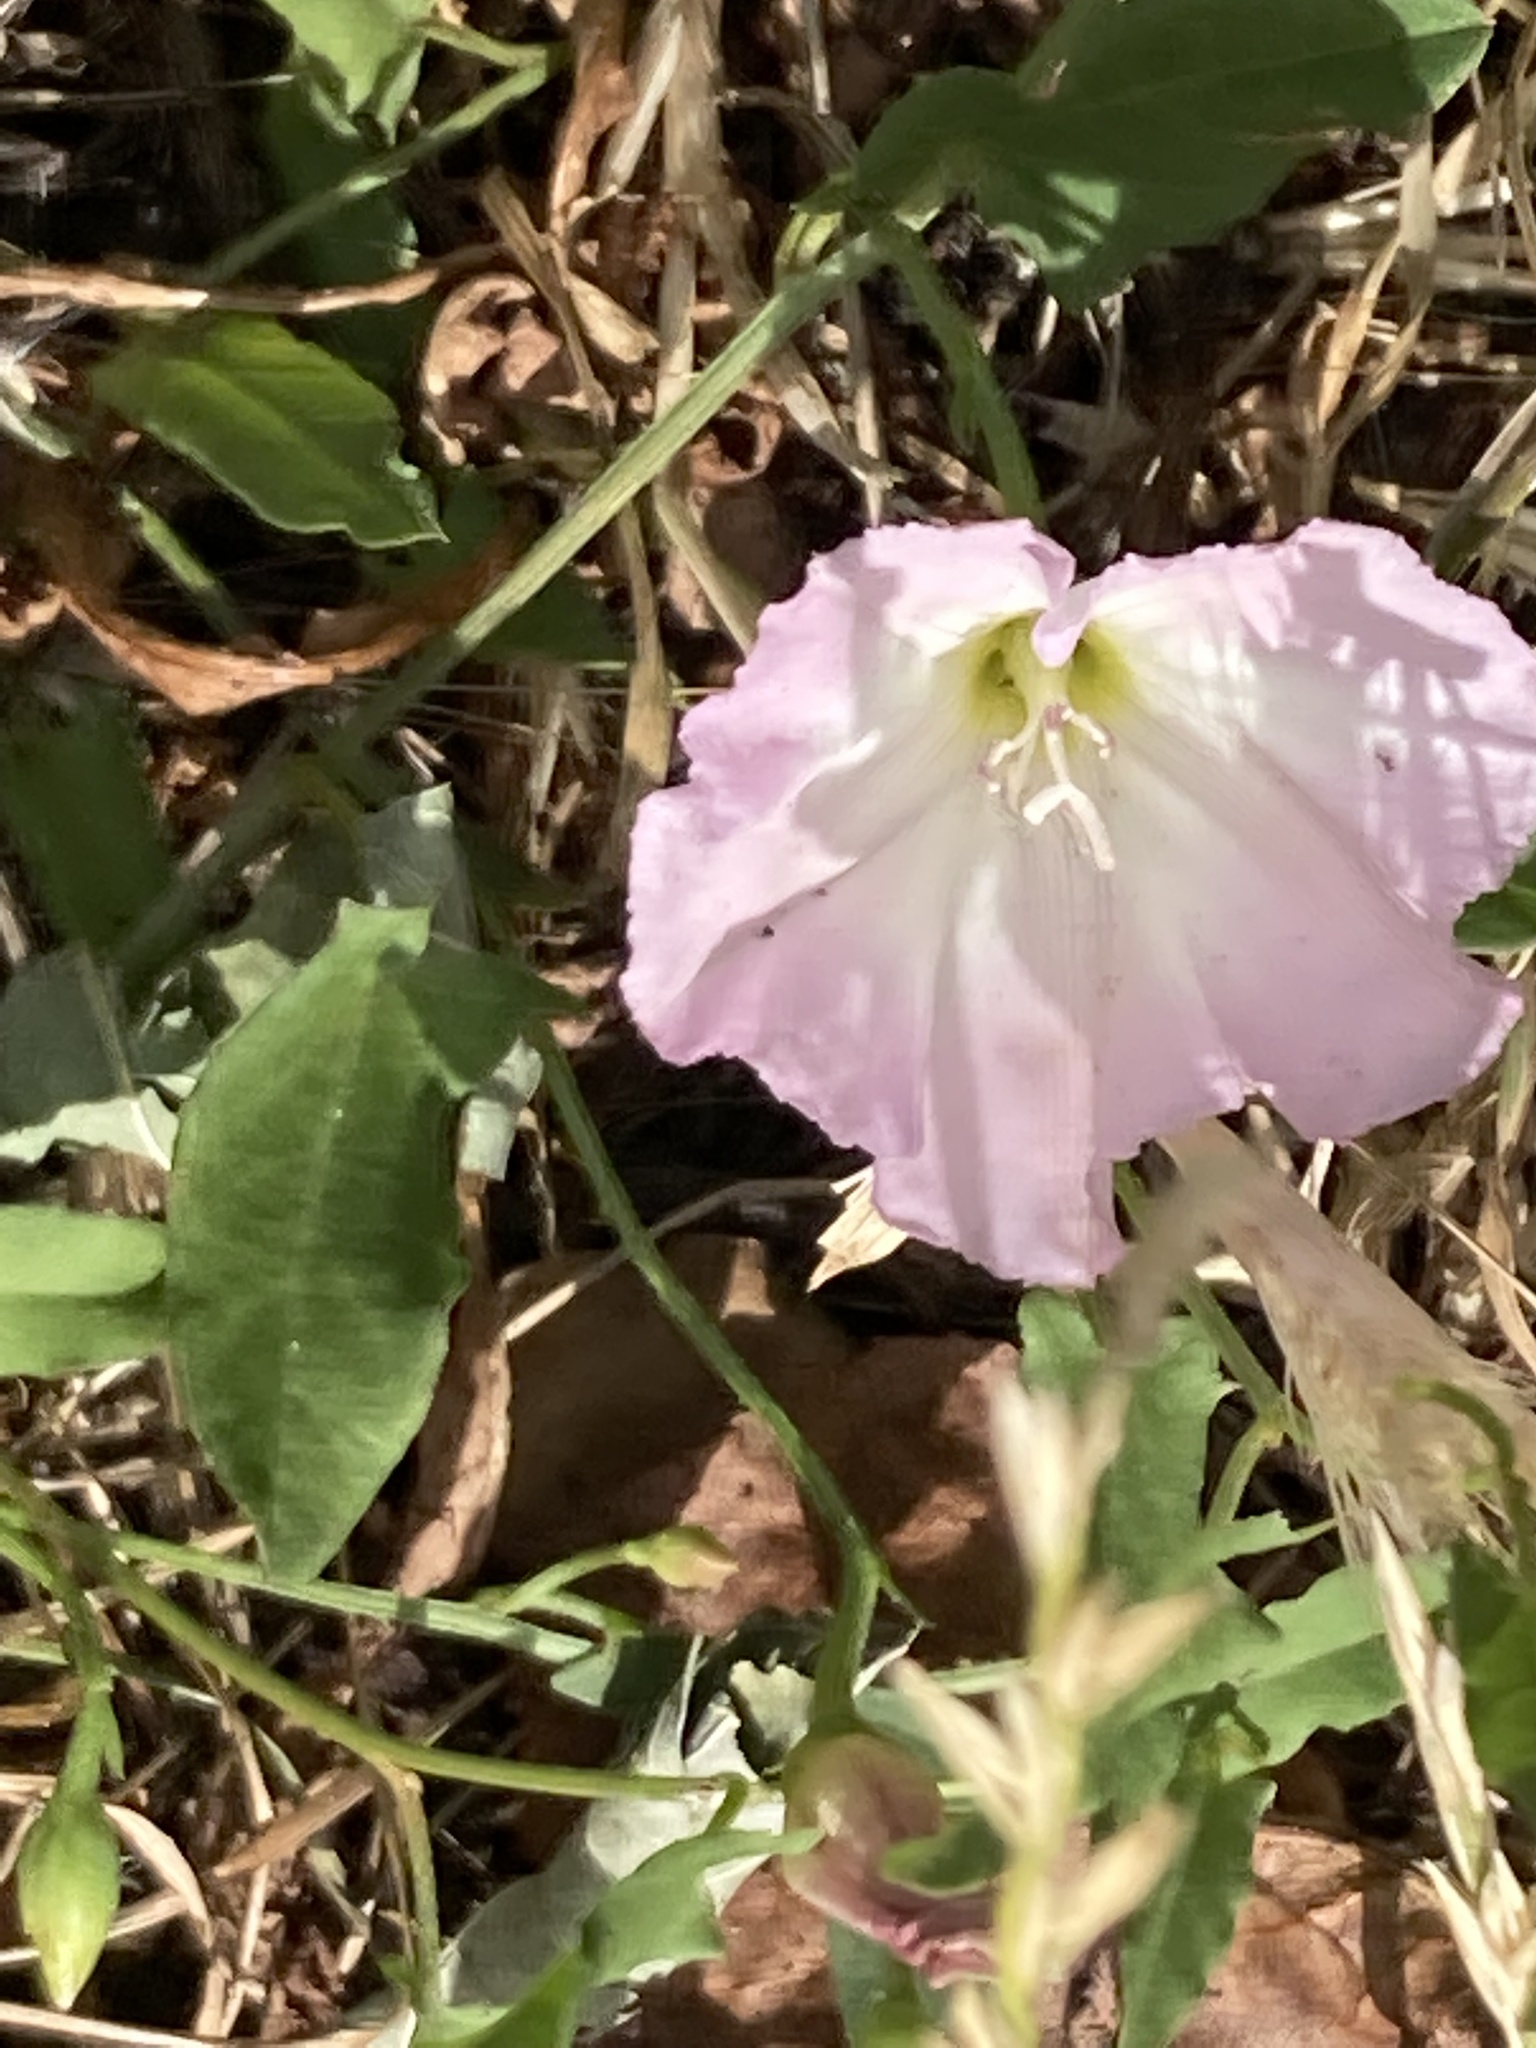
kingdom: Plantae
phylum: Tracheophyta
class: Magnoliopsida
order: Solanales
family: Convolvulaceae
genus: Convolvulus
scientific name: Convolvulus arvensis
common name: Field bindweed
